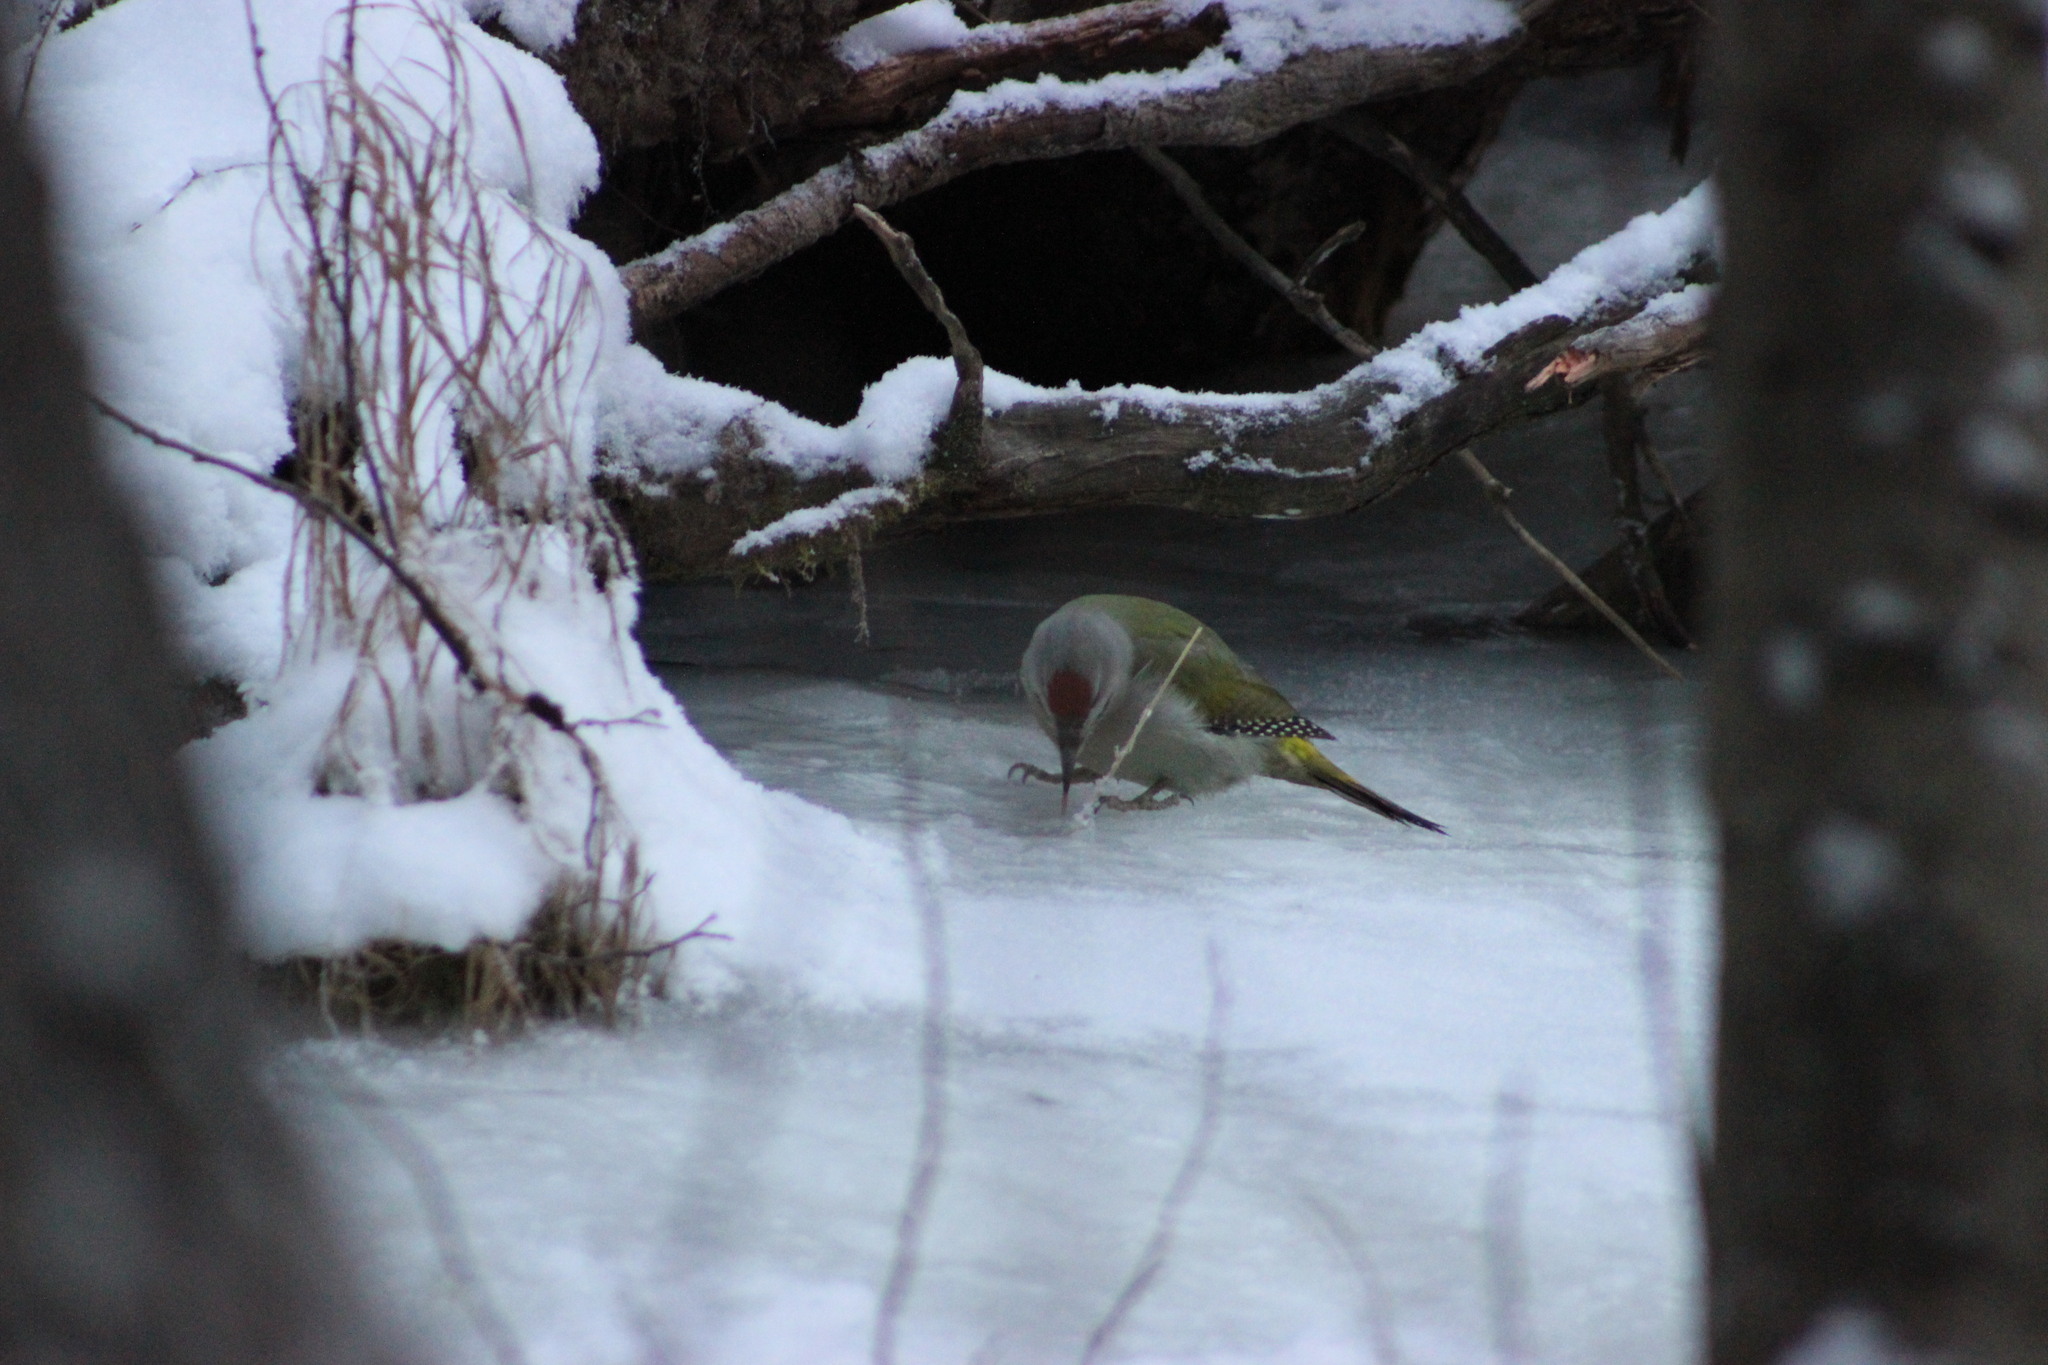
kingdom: Animalia
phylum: Chordata
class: Aves
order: Piciformes
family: Picidae
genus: Picus
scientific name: Picus canus
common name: Grey-headed woodpecker
